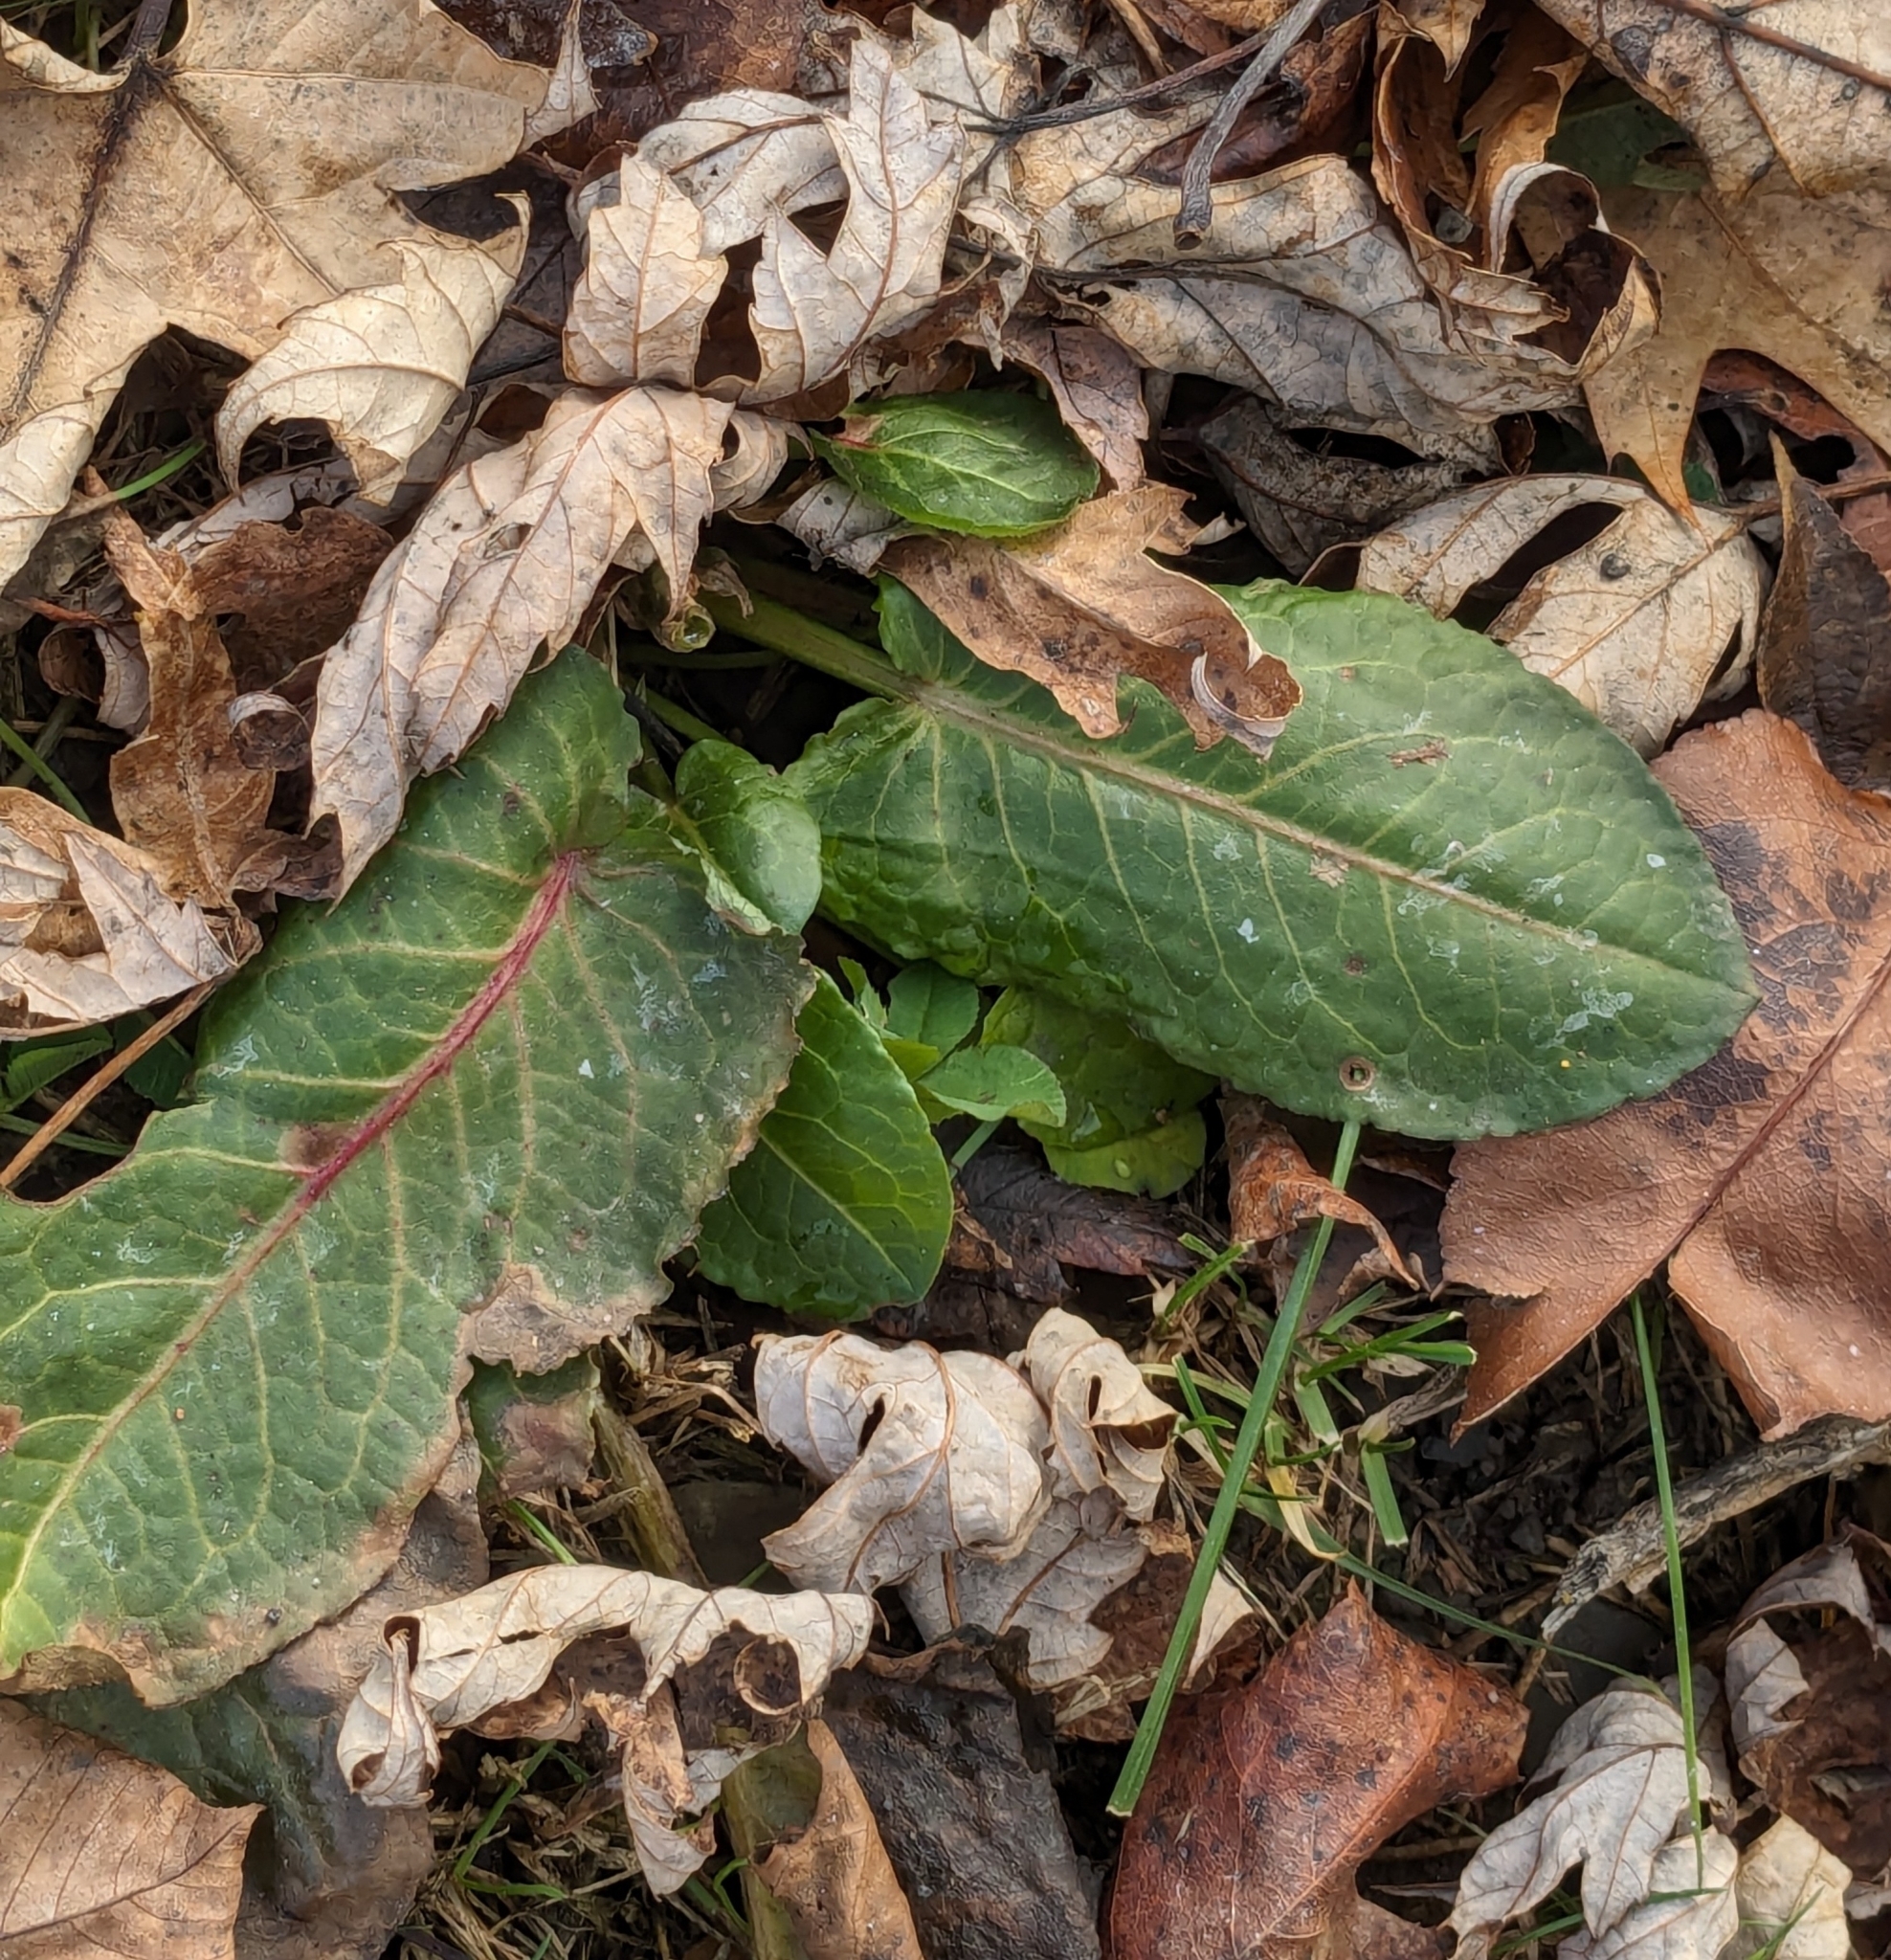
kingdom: Plantae
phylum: Tracheophyta
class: Magnoliopsida
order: Caryophyllales
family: Polygonaceae
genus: Rumex
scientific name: Rumex obtusifolius
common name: Bitter dock
